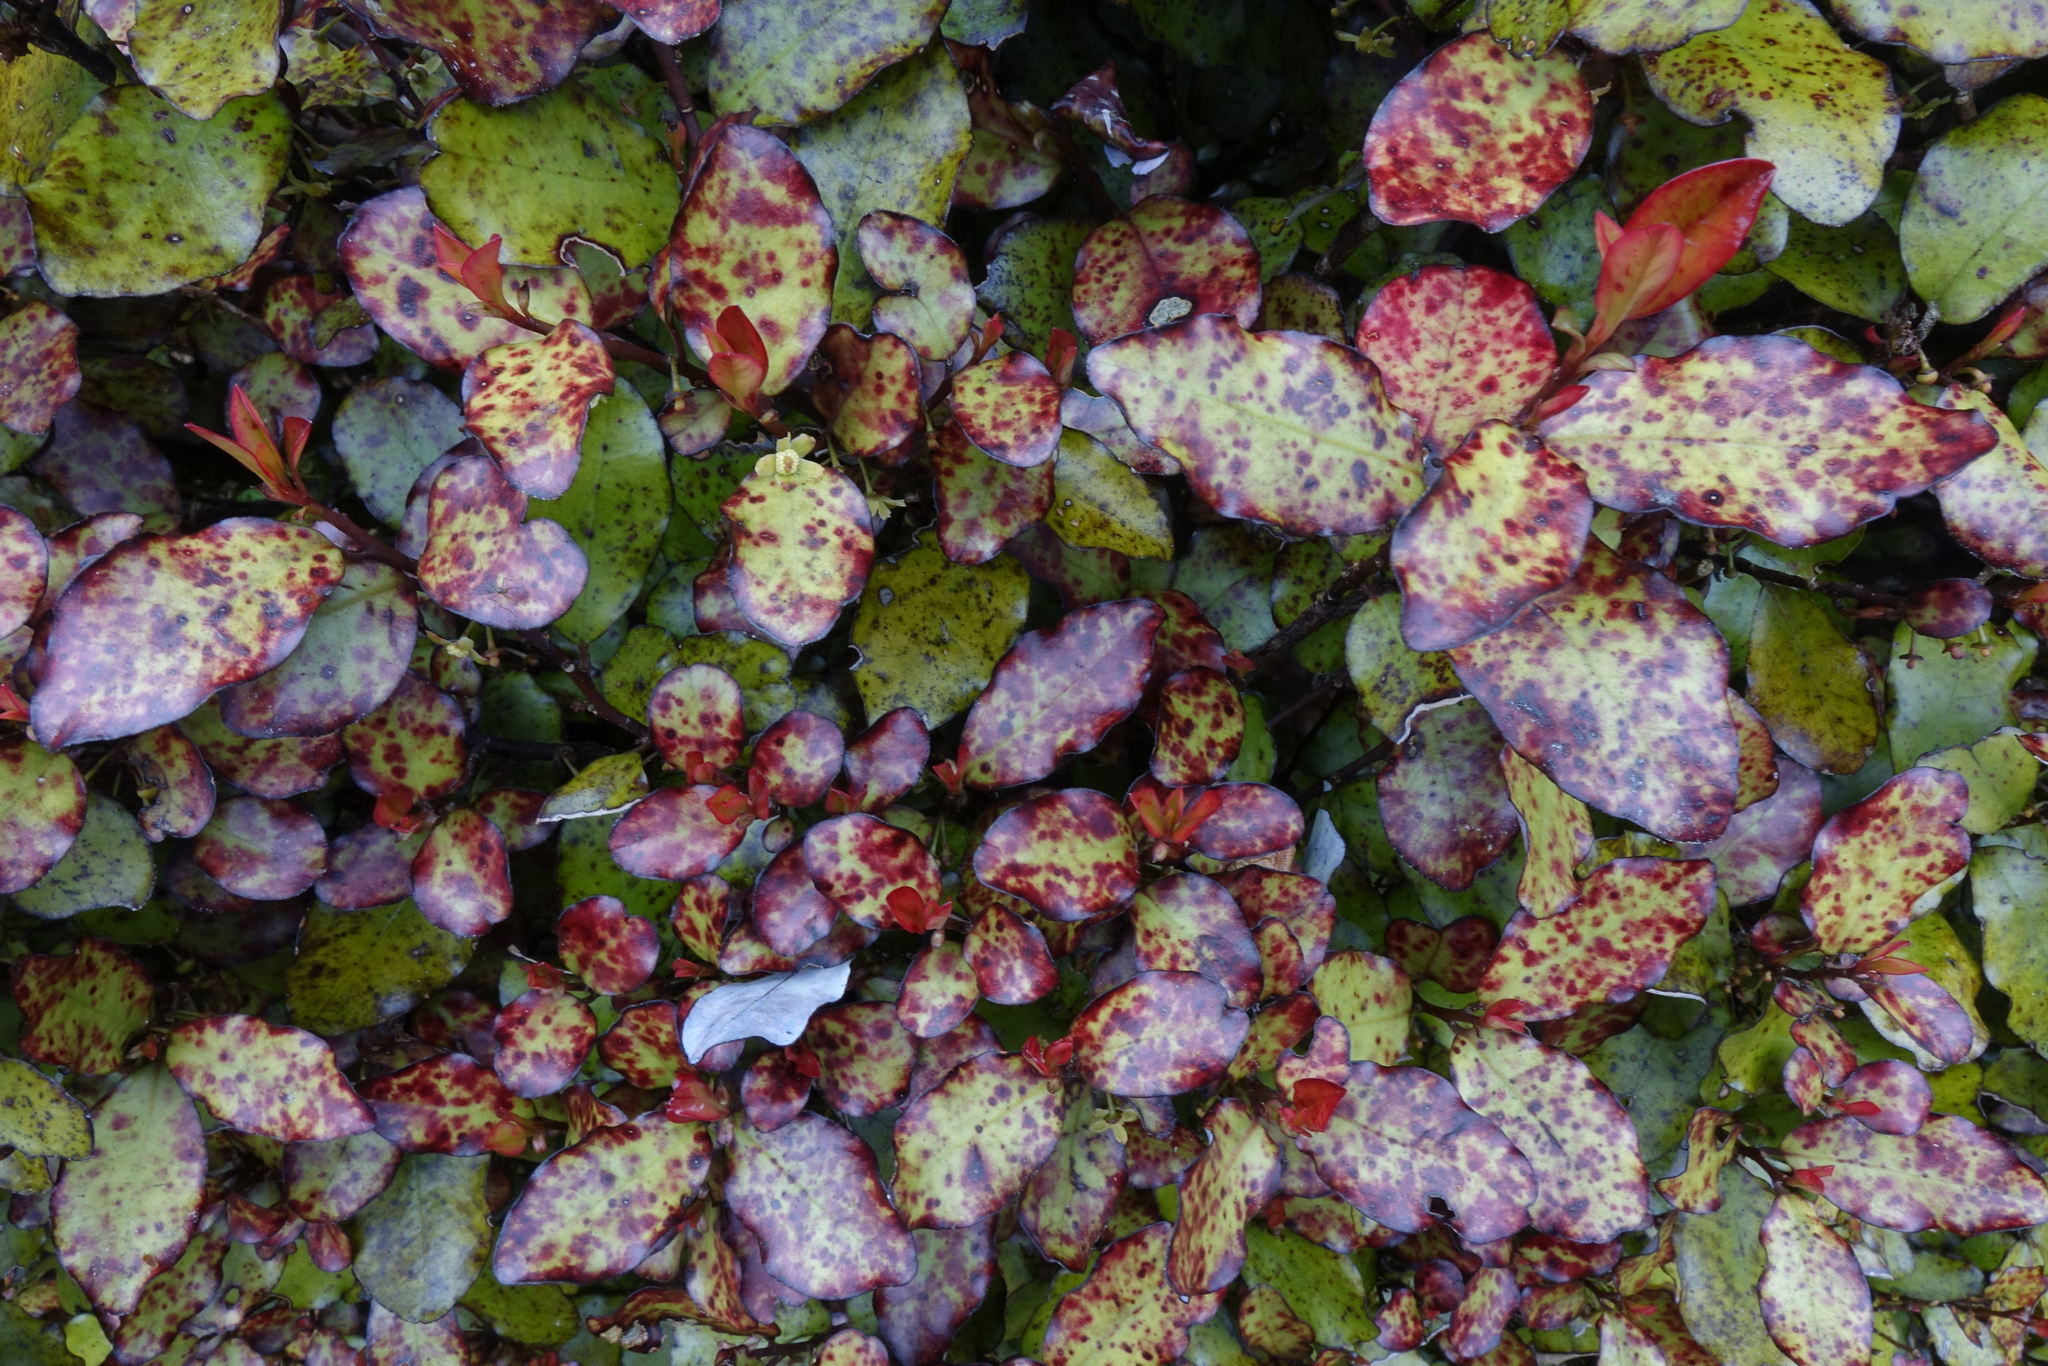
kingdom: Plantae
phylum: Tracheophyta
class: Magnoliopsida
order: Canellales
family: Winteraceae
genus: Pseudowintera
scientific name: Pseudowintera colorata
